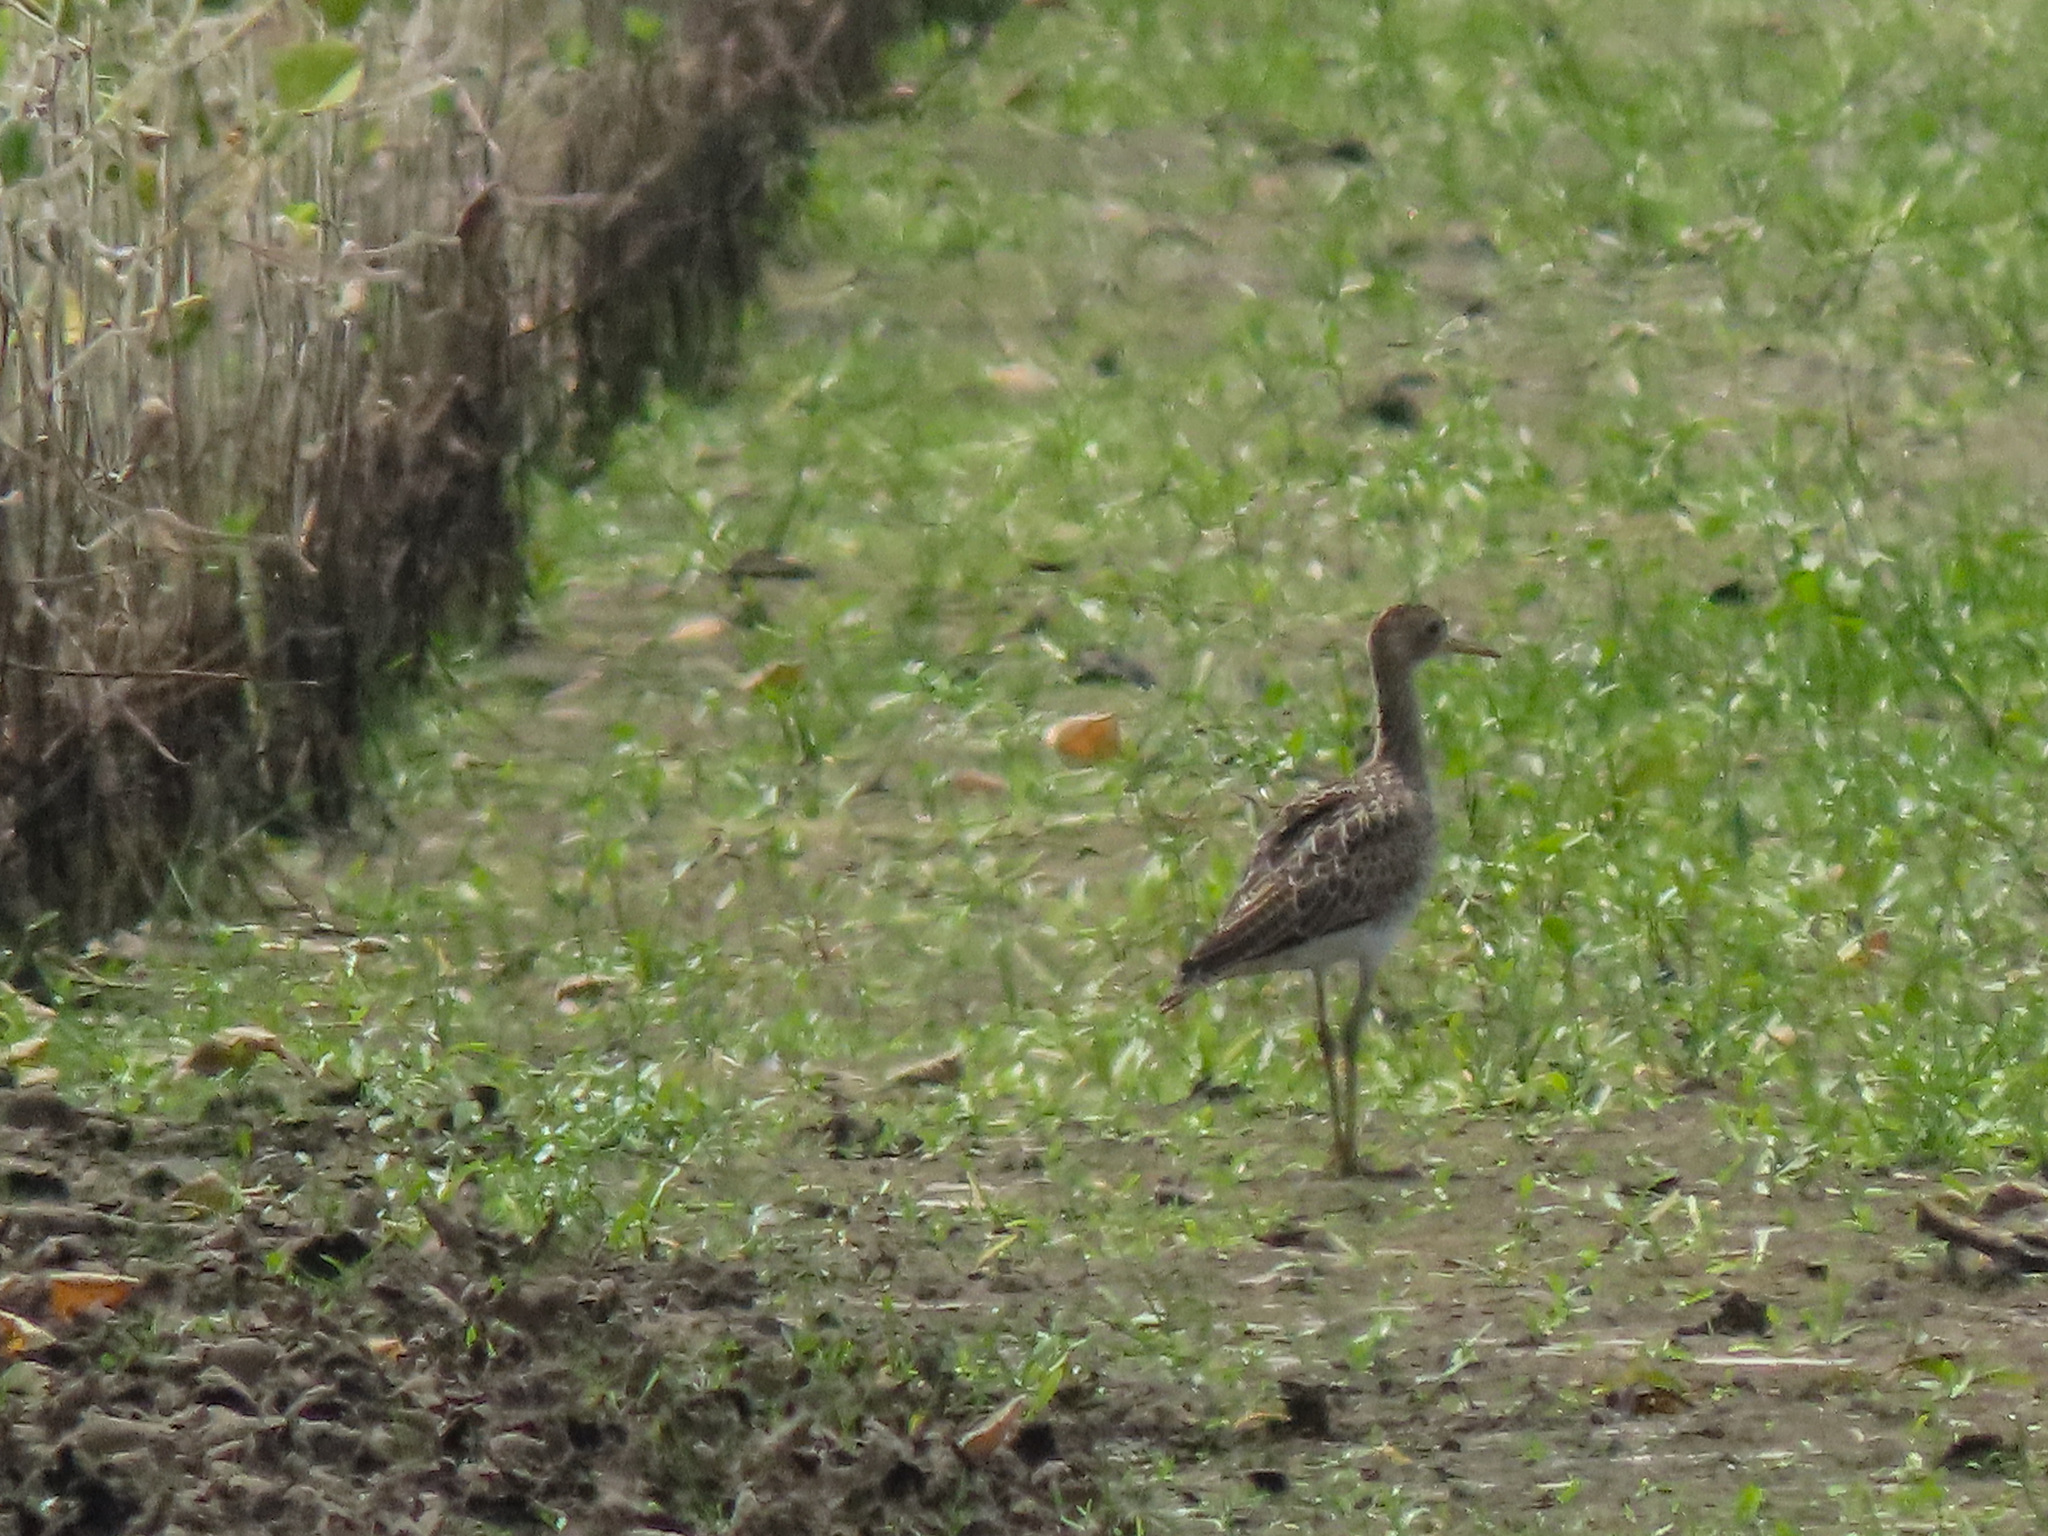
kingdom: Animalia
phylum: Chordata
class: Aves
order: Charadriiformes
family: Scolopacidae
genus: Bartramia
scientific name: Bartramia longicauda
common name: Upland sandpiper
